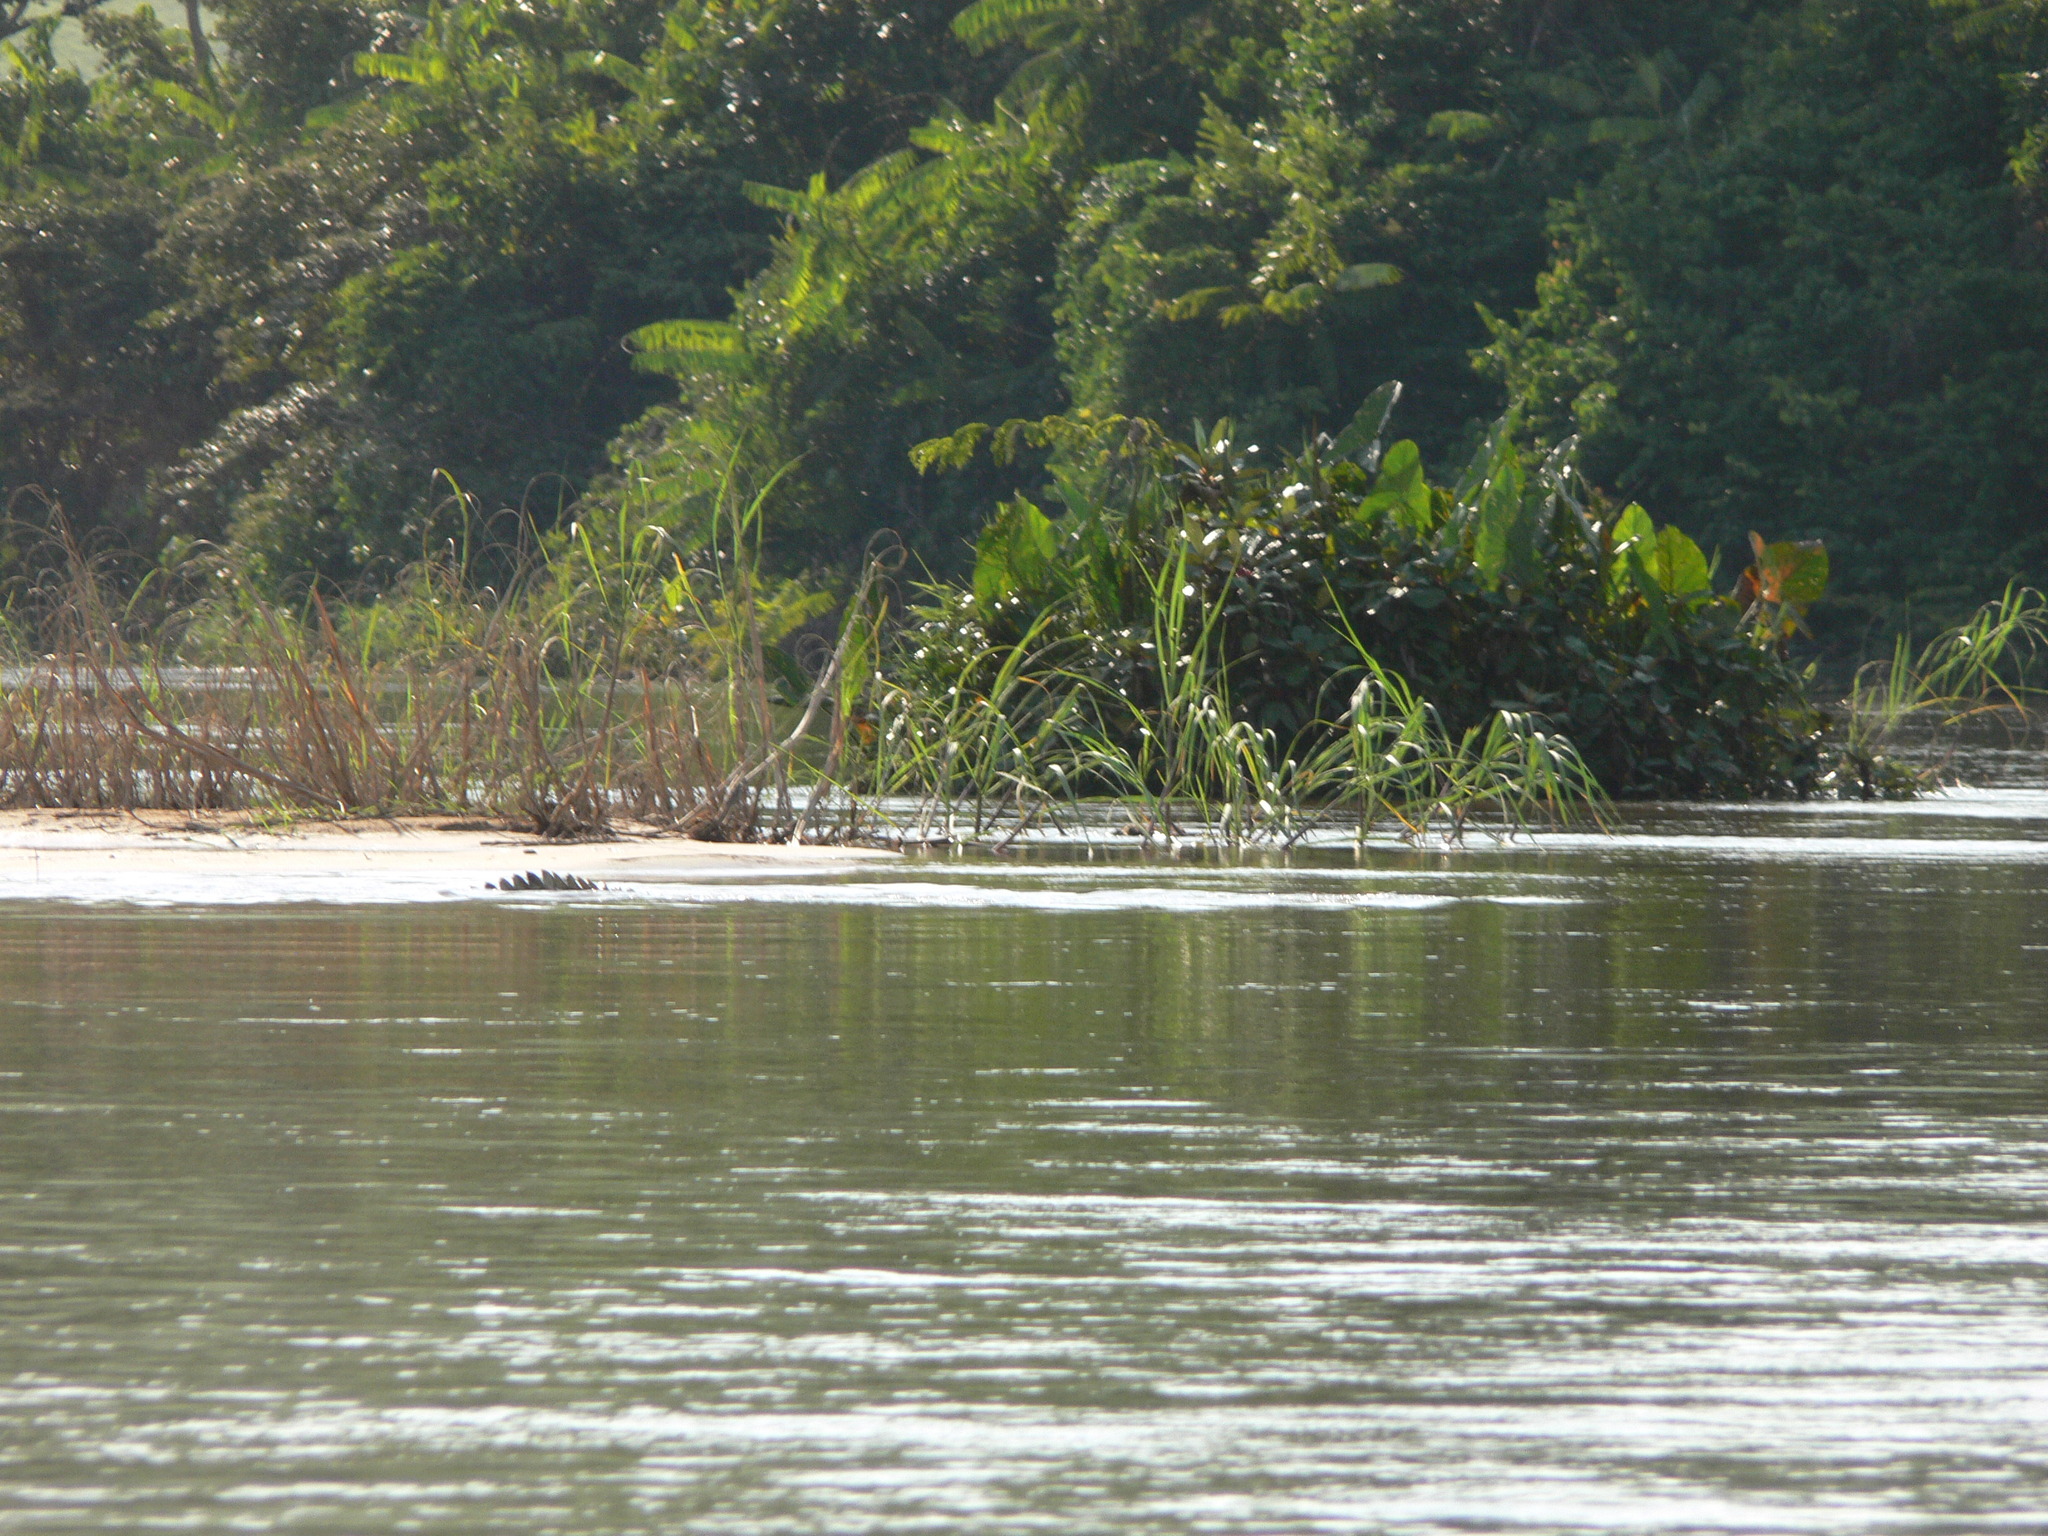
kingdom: Animalia
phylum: Chordata
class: Crocodylia
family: Crocodylidae
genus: Crocodylus
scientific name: Crocodylus niloticus
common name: Nile crocodile
